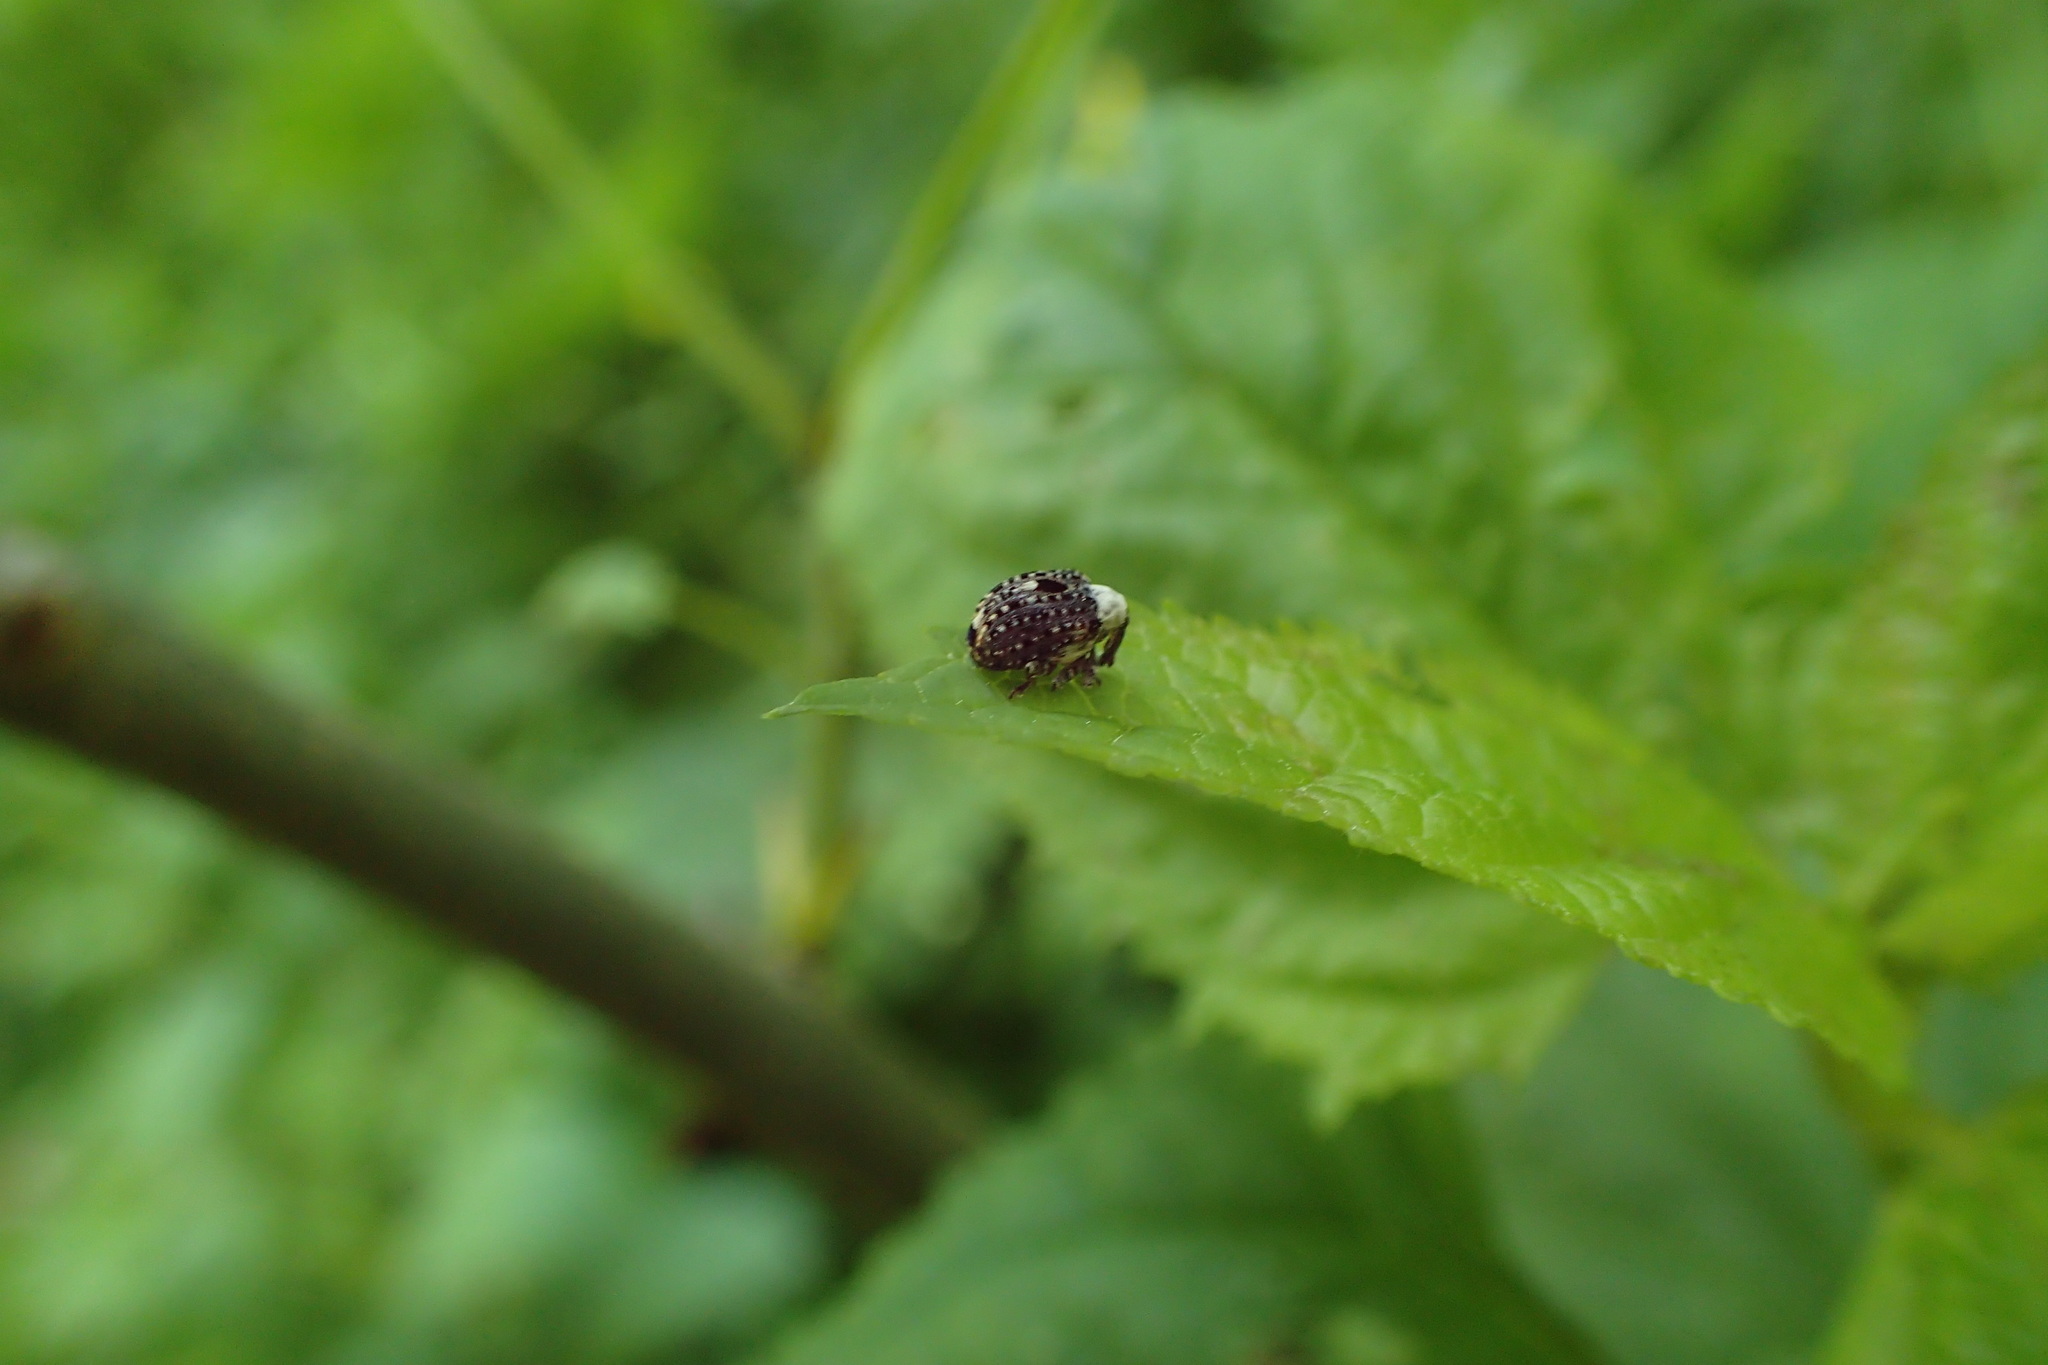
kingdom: Animalia
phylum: Arthropoda
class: Insecta
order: Coleoptera
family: Curculionidae
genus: Cionus
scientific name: Cionus scrophulariae
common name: Common figwort weevil
